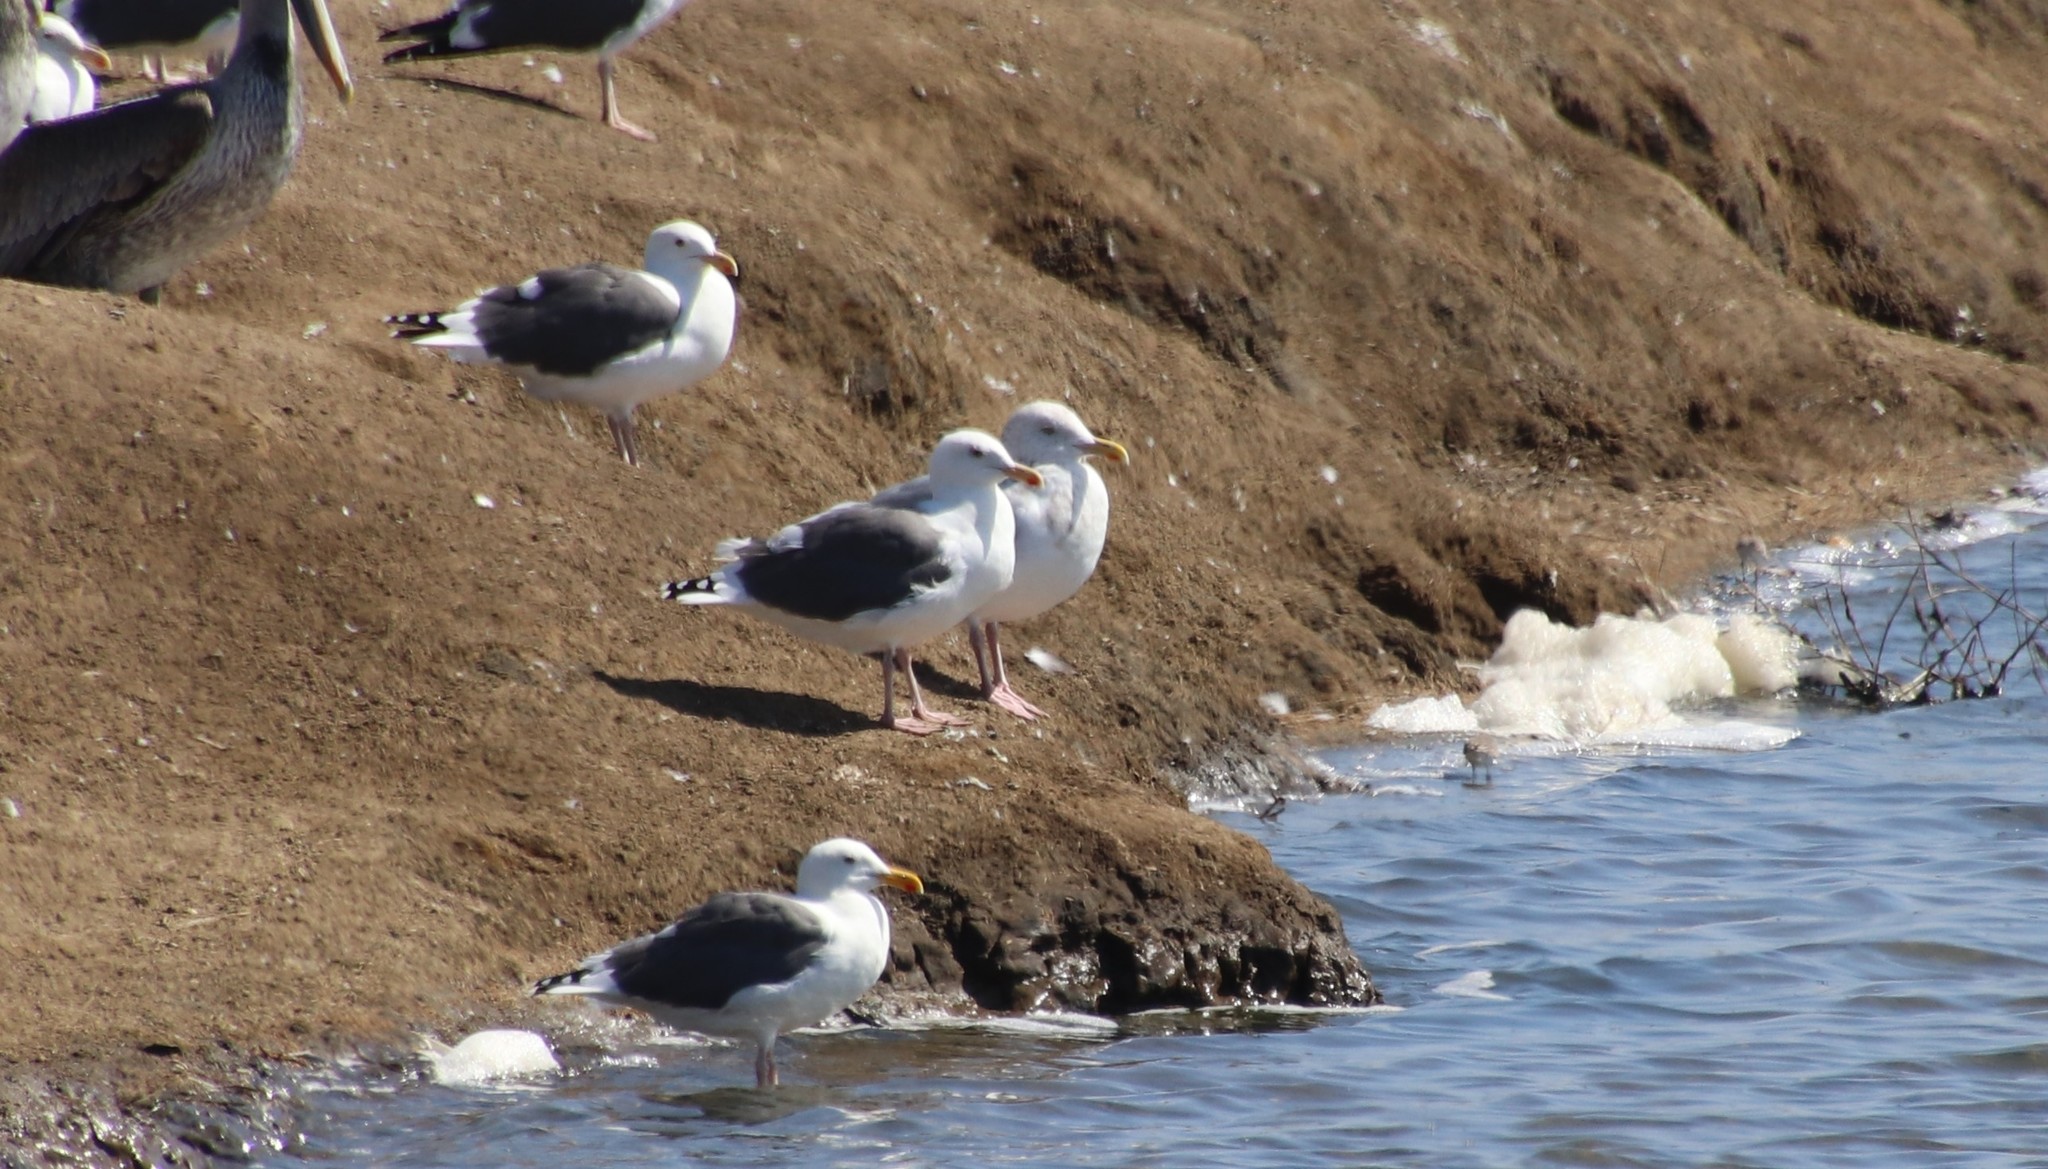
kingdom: Animalia
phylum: Chordata
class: Aves
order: Charadriiformes
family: Laridae
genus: Larus
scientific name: Larus occidentalis
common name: Western gull
